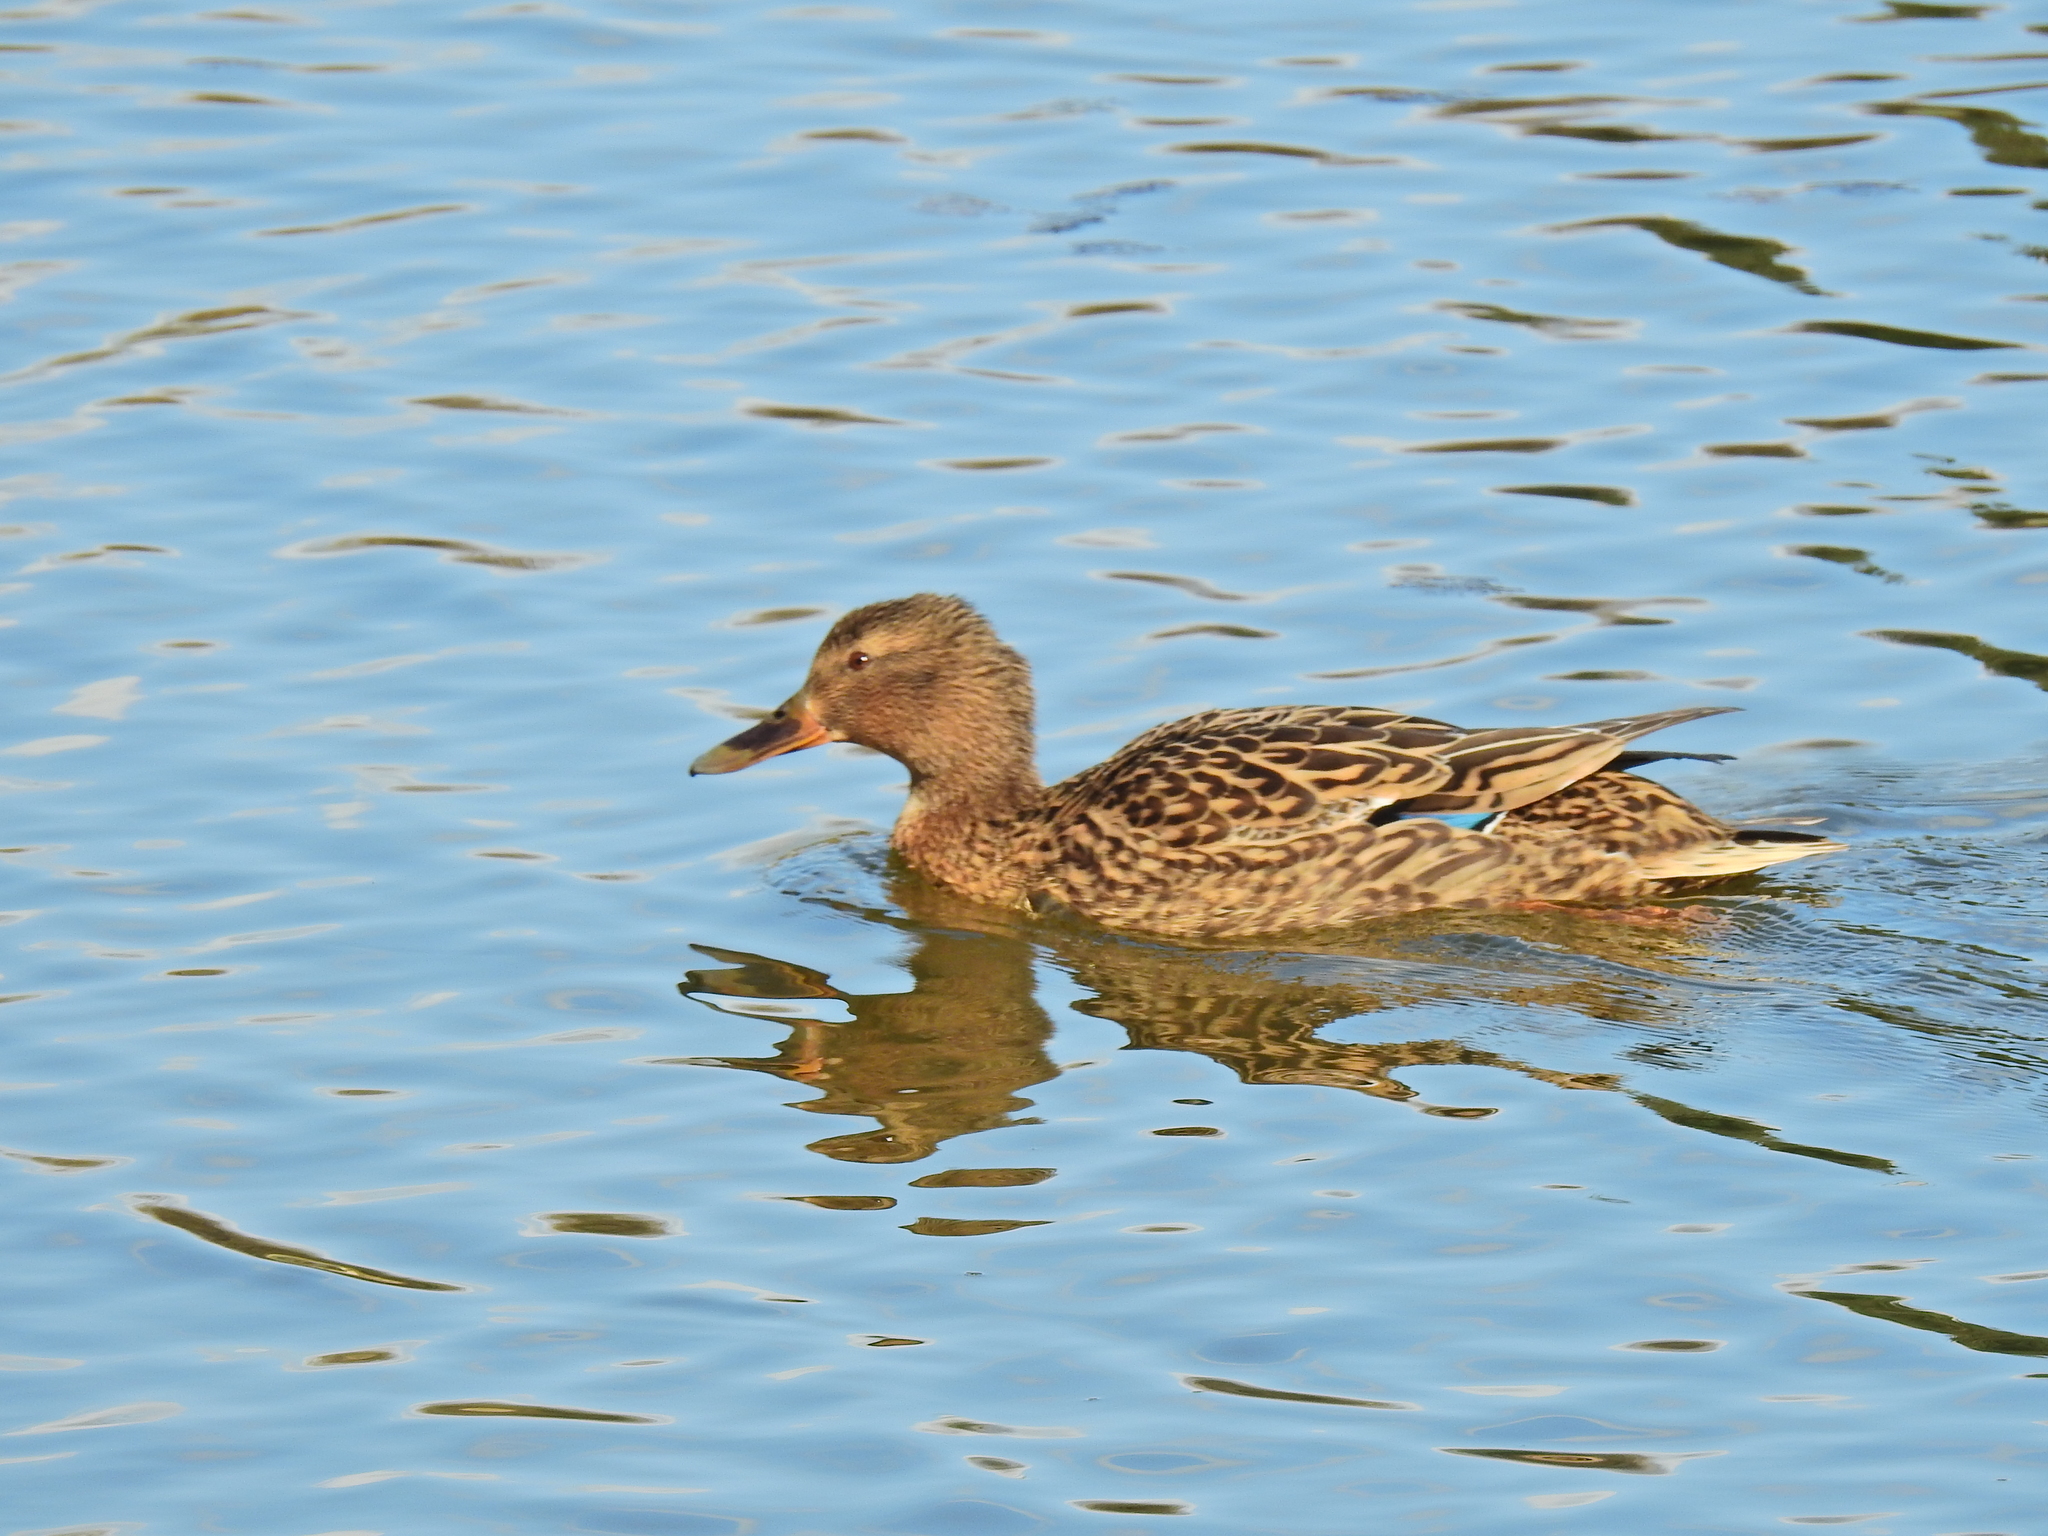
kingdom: Animalia
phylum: Chordata
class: Aves
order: Anseriformes
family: Anatidae
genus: Anas
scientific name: Anas platyrhynchos
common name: Mallard
